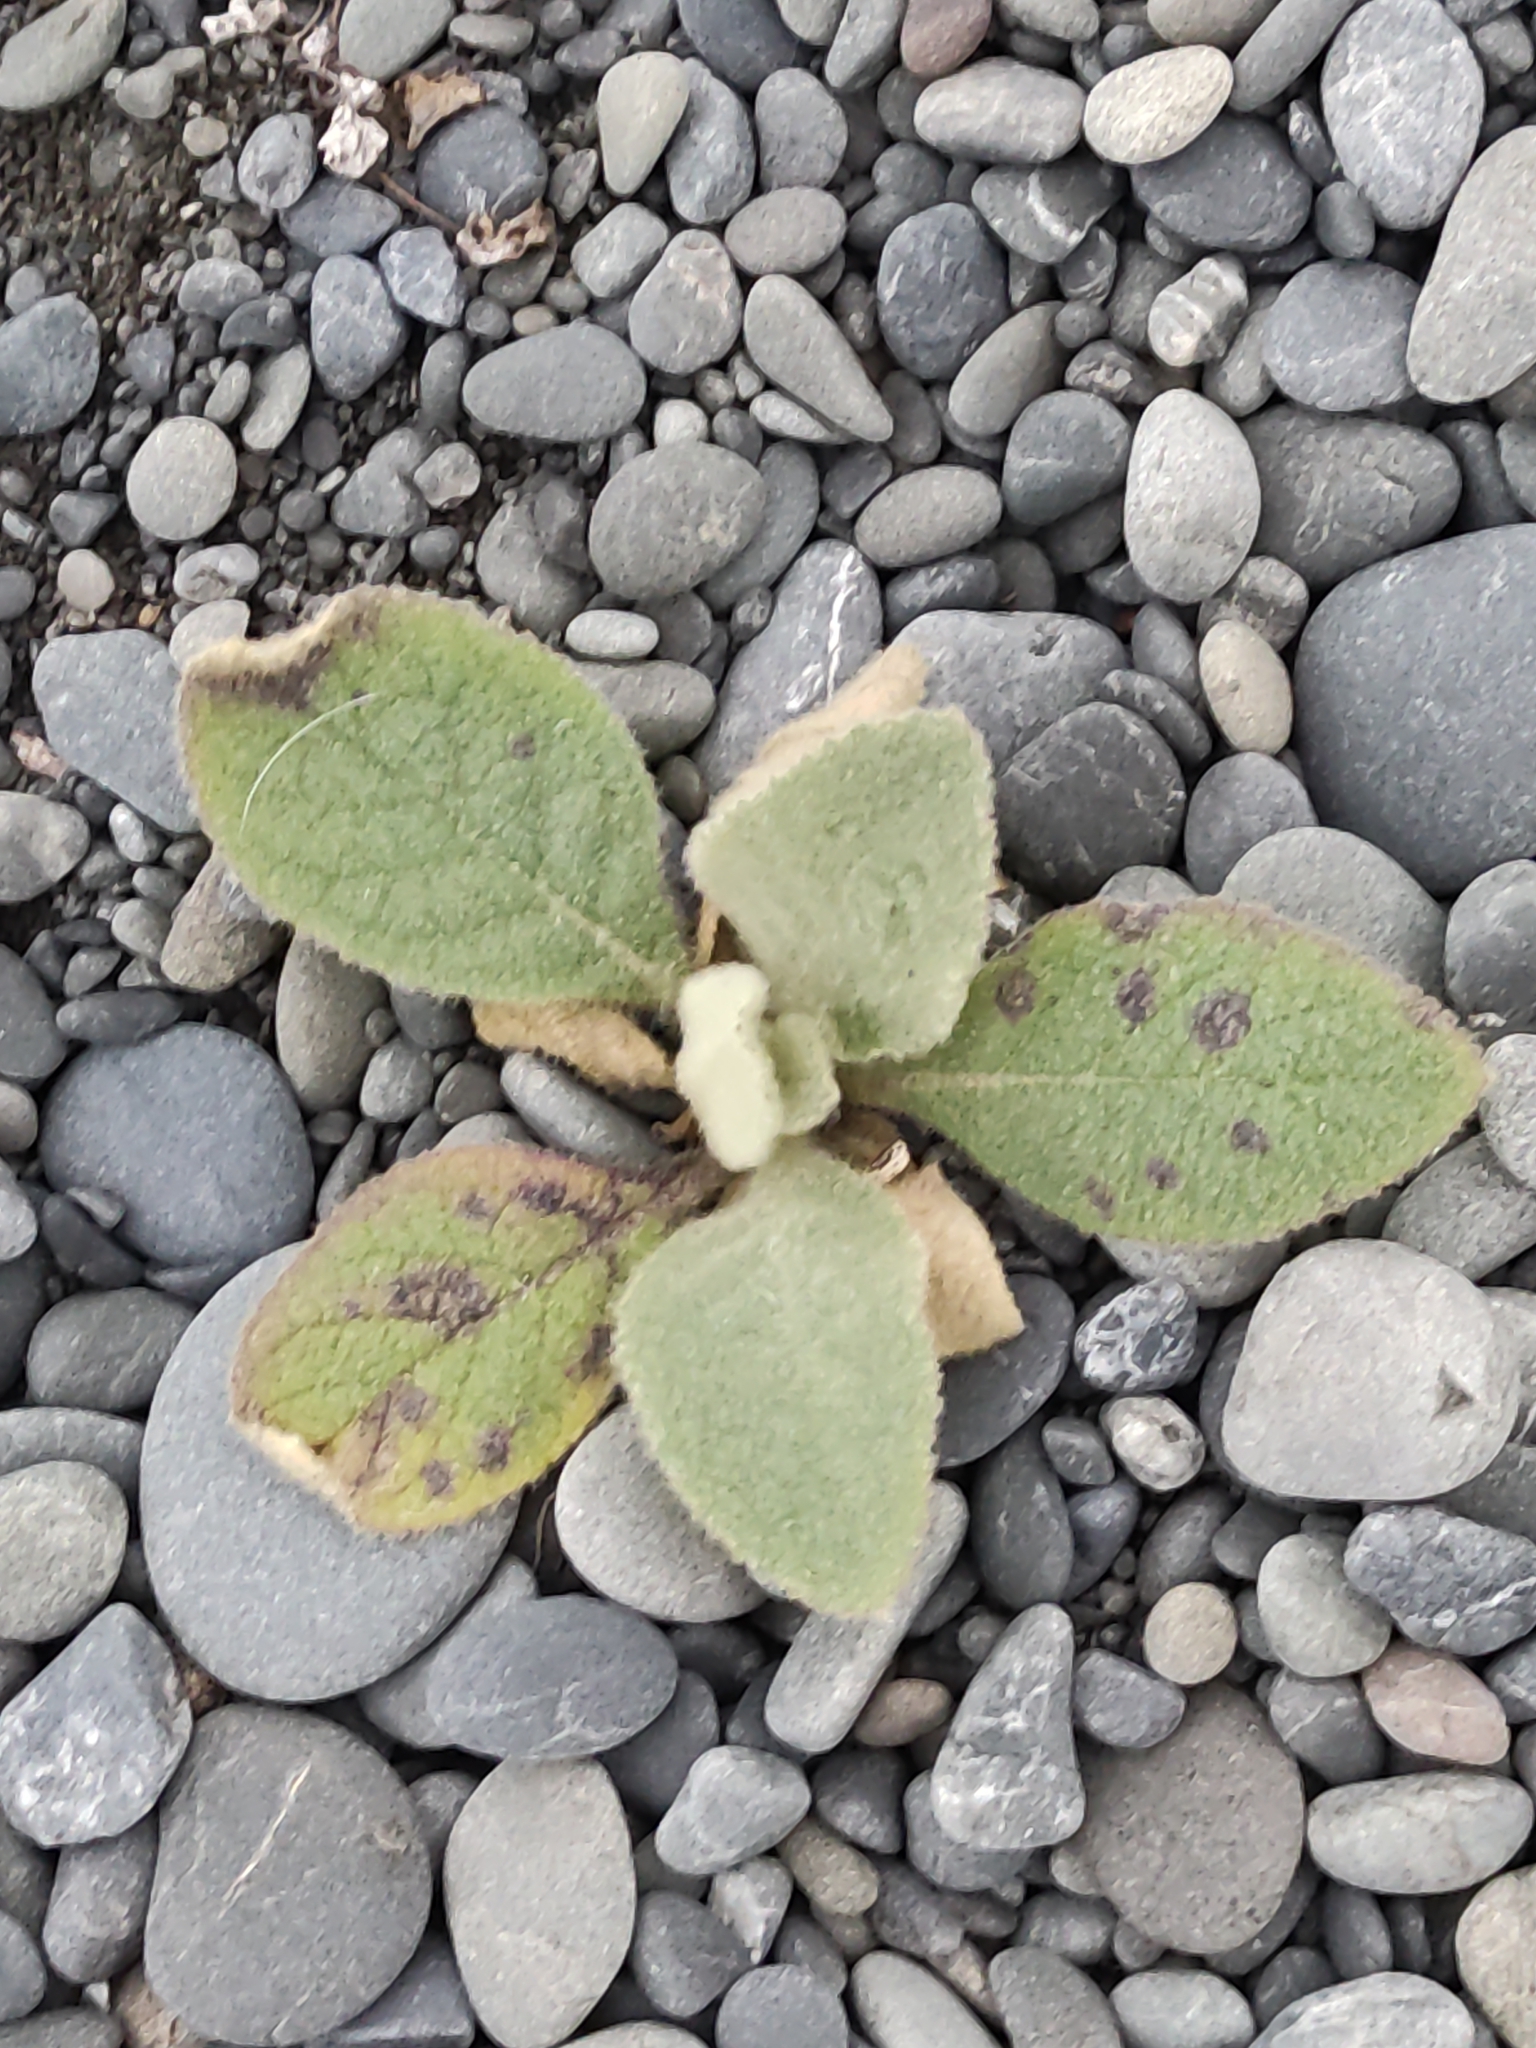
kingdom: Plantae
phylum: Tracheophyta
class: Magnoliopsida
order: Lamiales
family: Scrophulariaceae
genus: Verbascum
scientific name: Verbascum thapsus
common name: Common mullein
